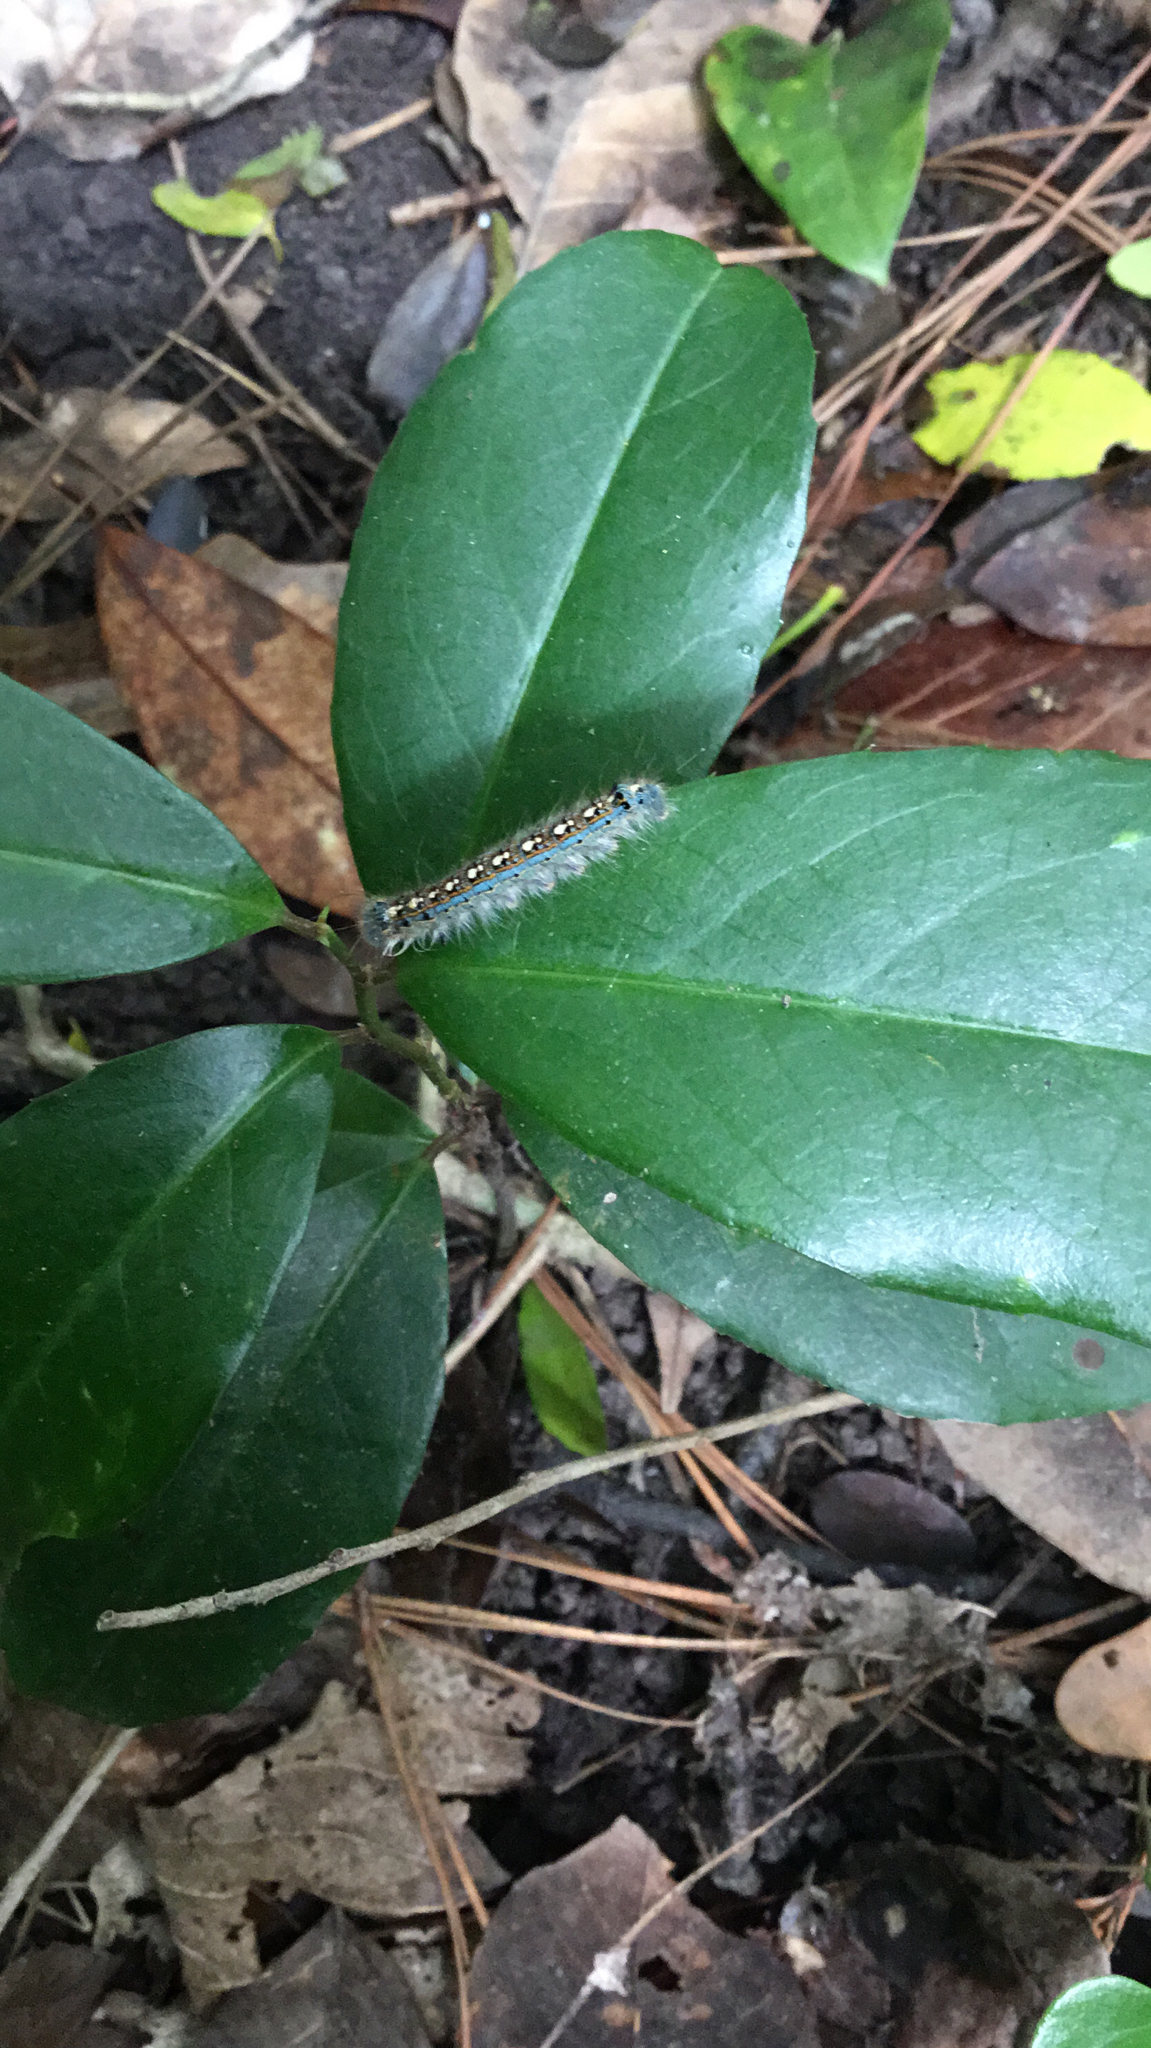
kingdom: Animalia
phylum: Arthropoda
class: Insecta
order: Lepidoptera
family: Lasiocampidae
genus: Malacosoma
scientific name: Malacosoma disstria
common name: Forest tent caterpillar
